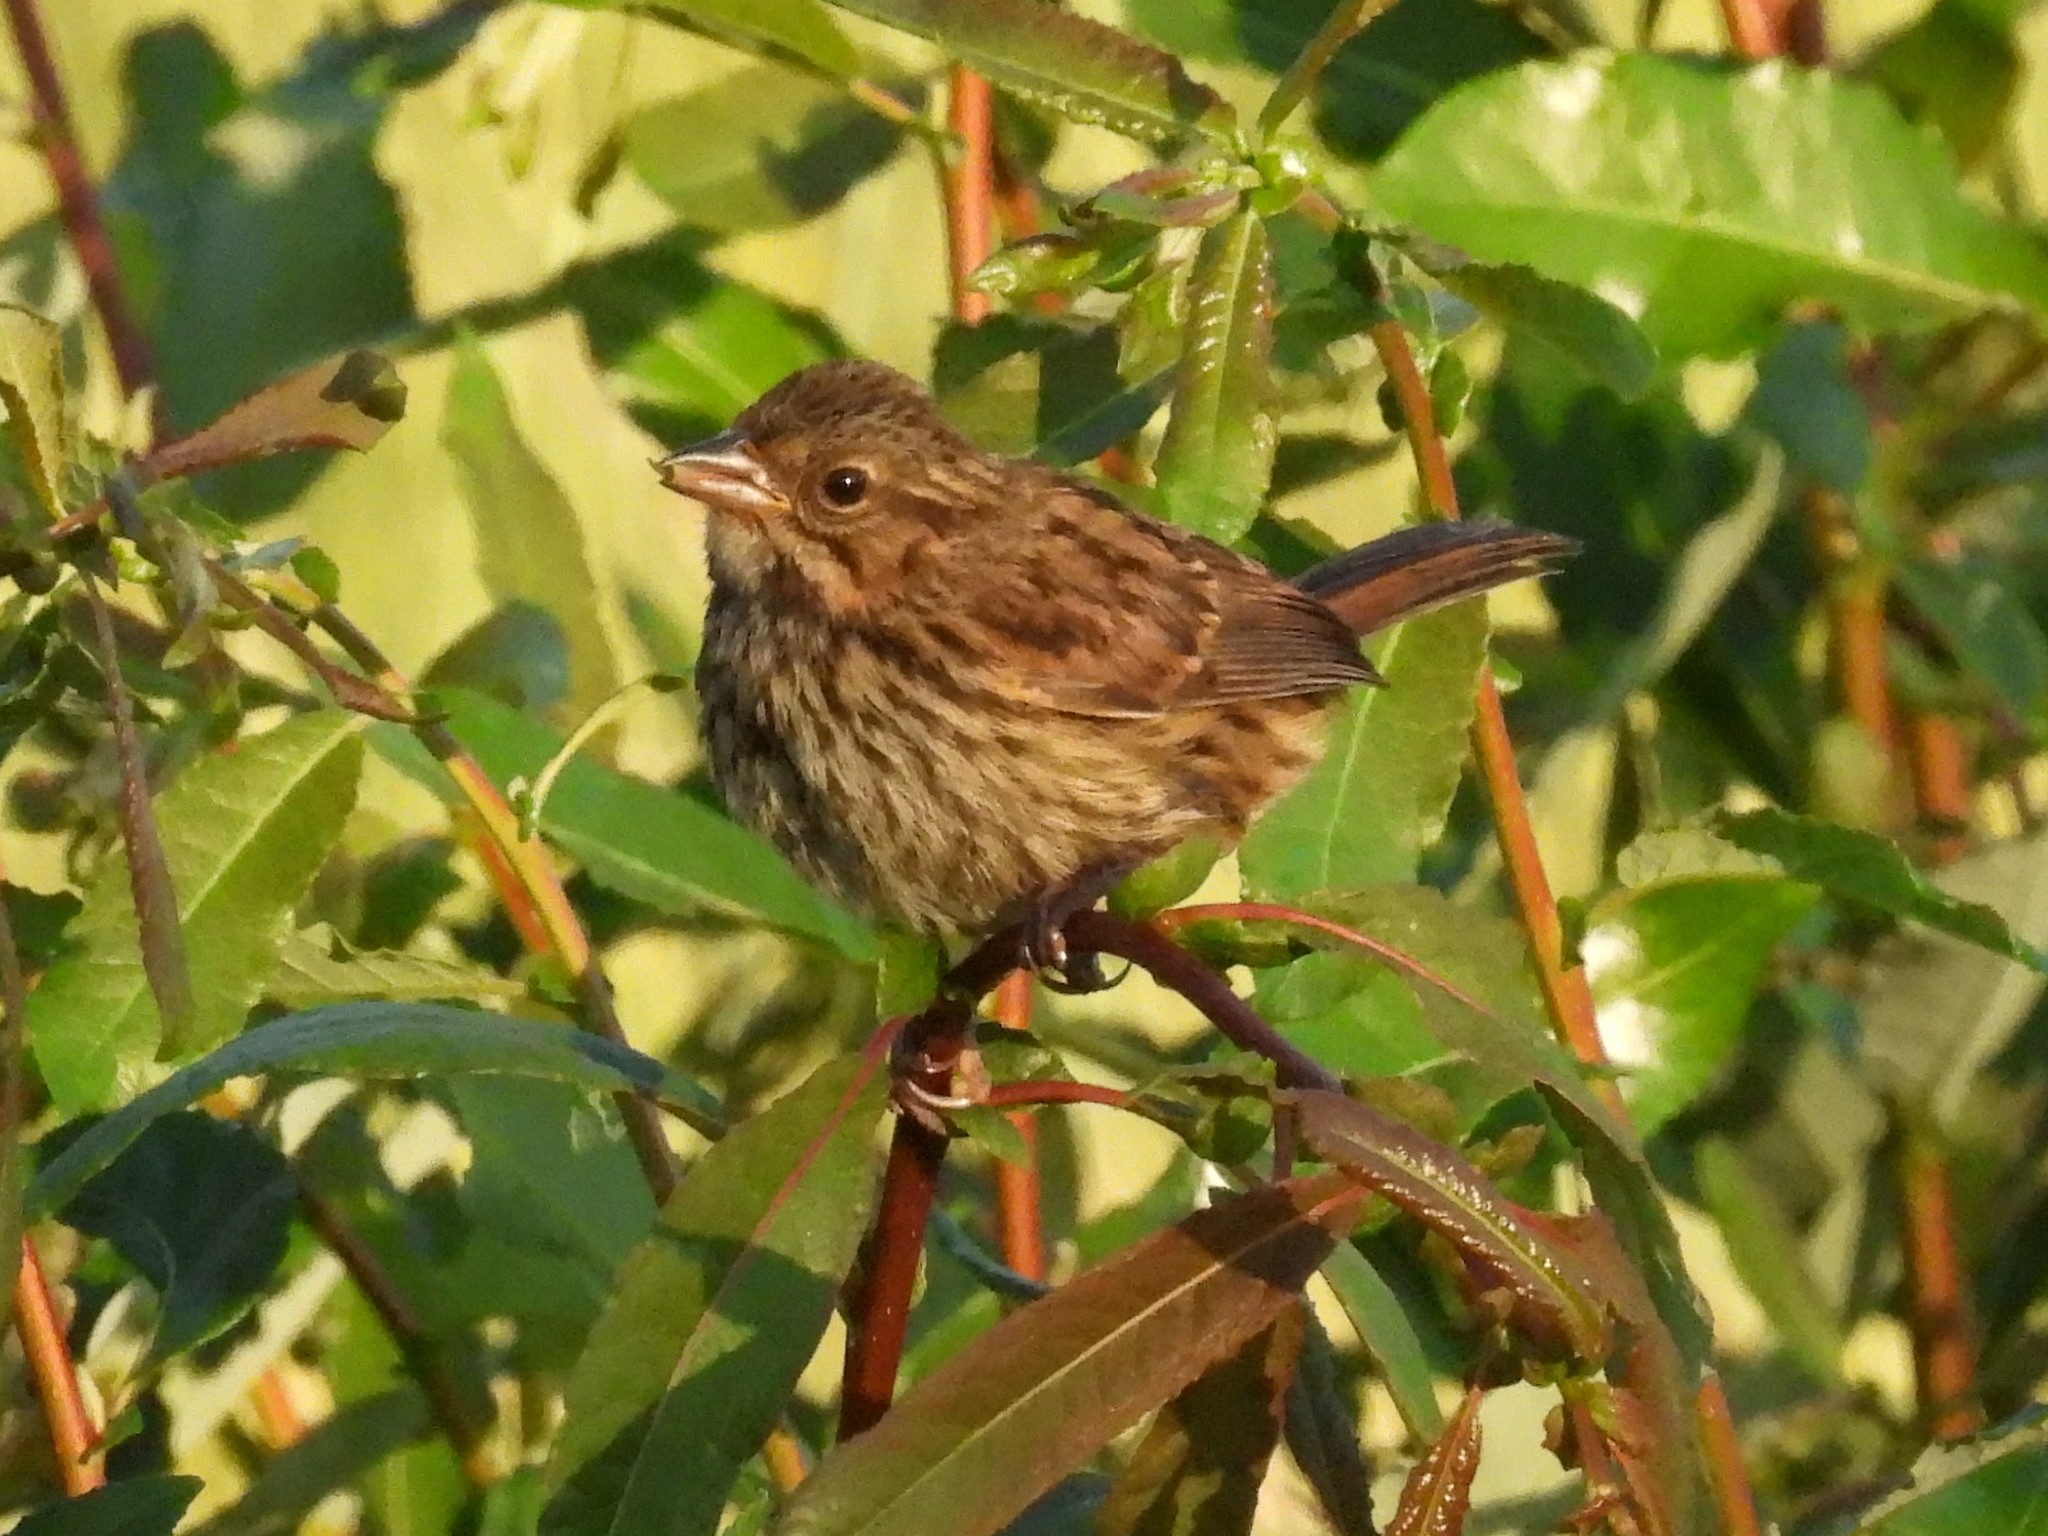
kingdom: Animalia
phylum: Chordata
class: Aves
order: Passeriformes
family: Passerellidae
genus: Melospiza
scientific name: Melospiza melodia
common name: Song sparrow
